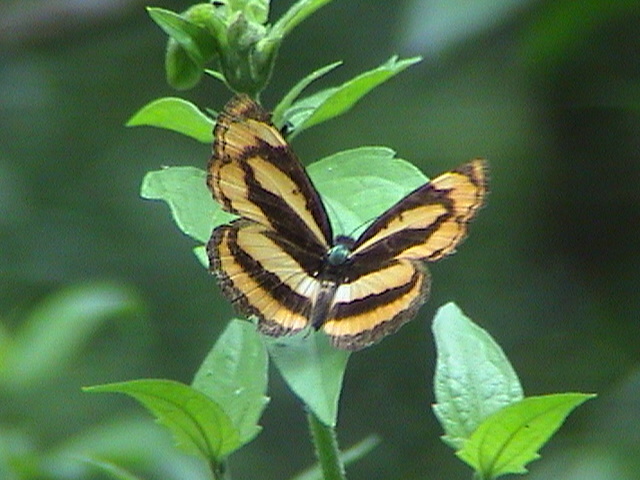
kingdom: Animalia
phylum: Arthropoda
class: Insecta
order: Lepidoptera
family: Nymphalidae
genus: Pantoporia
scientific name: Pantoporia hordonia
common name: Common lascar
